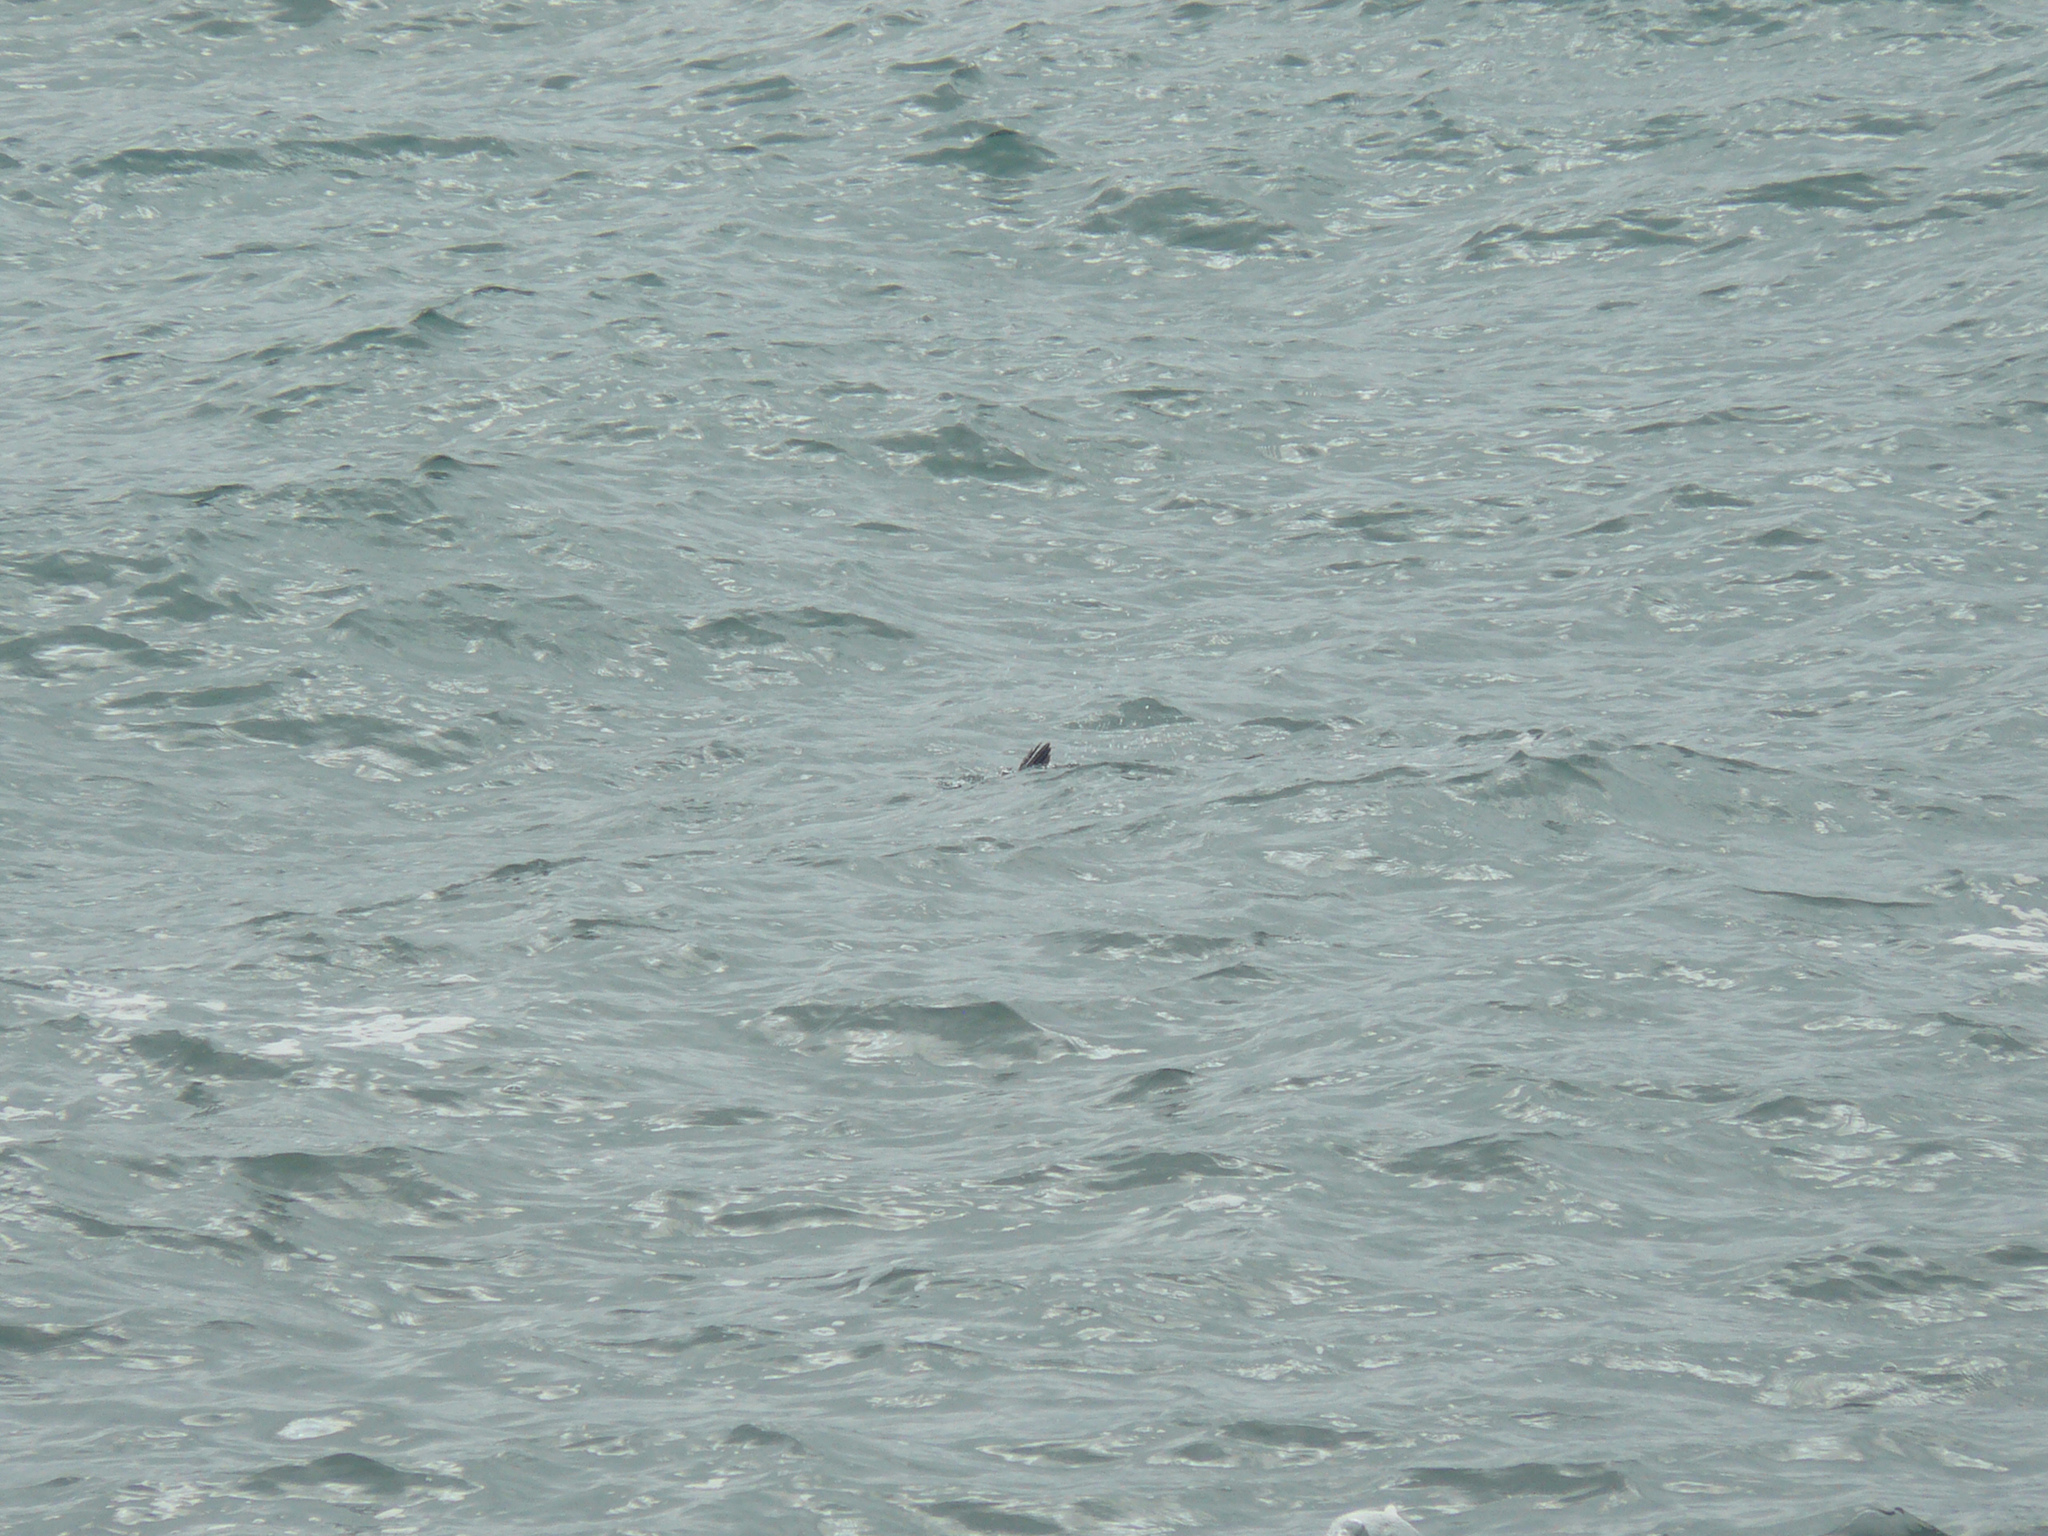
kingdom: Animalia
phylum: Chordata
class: Aves
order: Charadriiformes
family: Alcidae
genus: Fratercula
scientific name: Fratercula arctica
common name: Atlantic puffin
